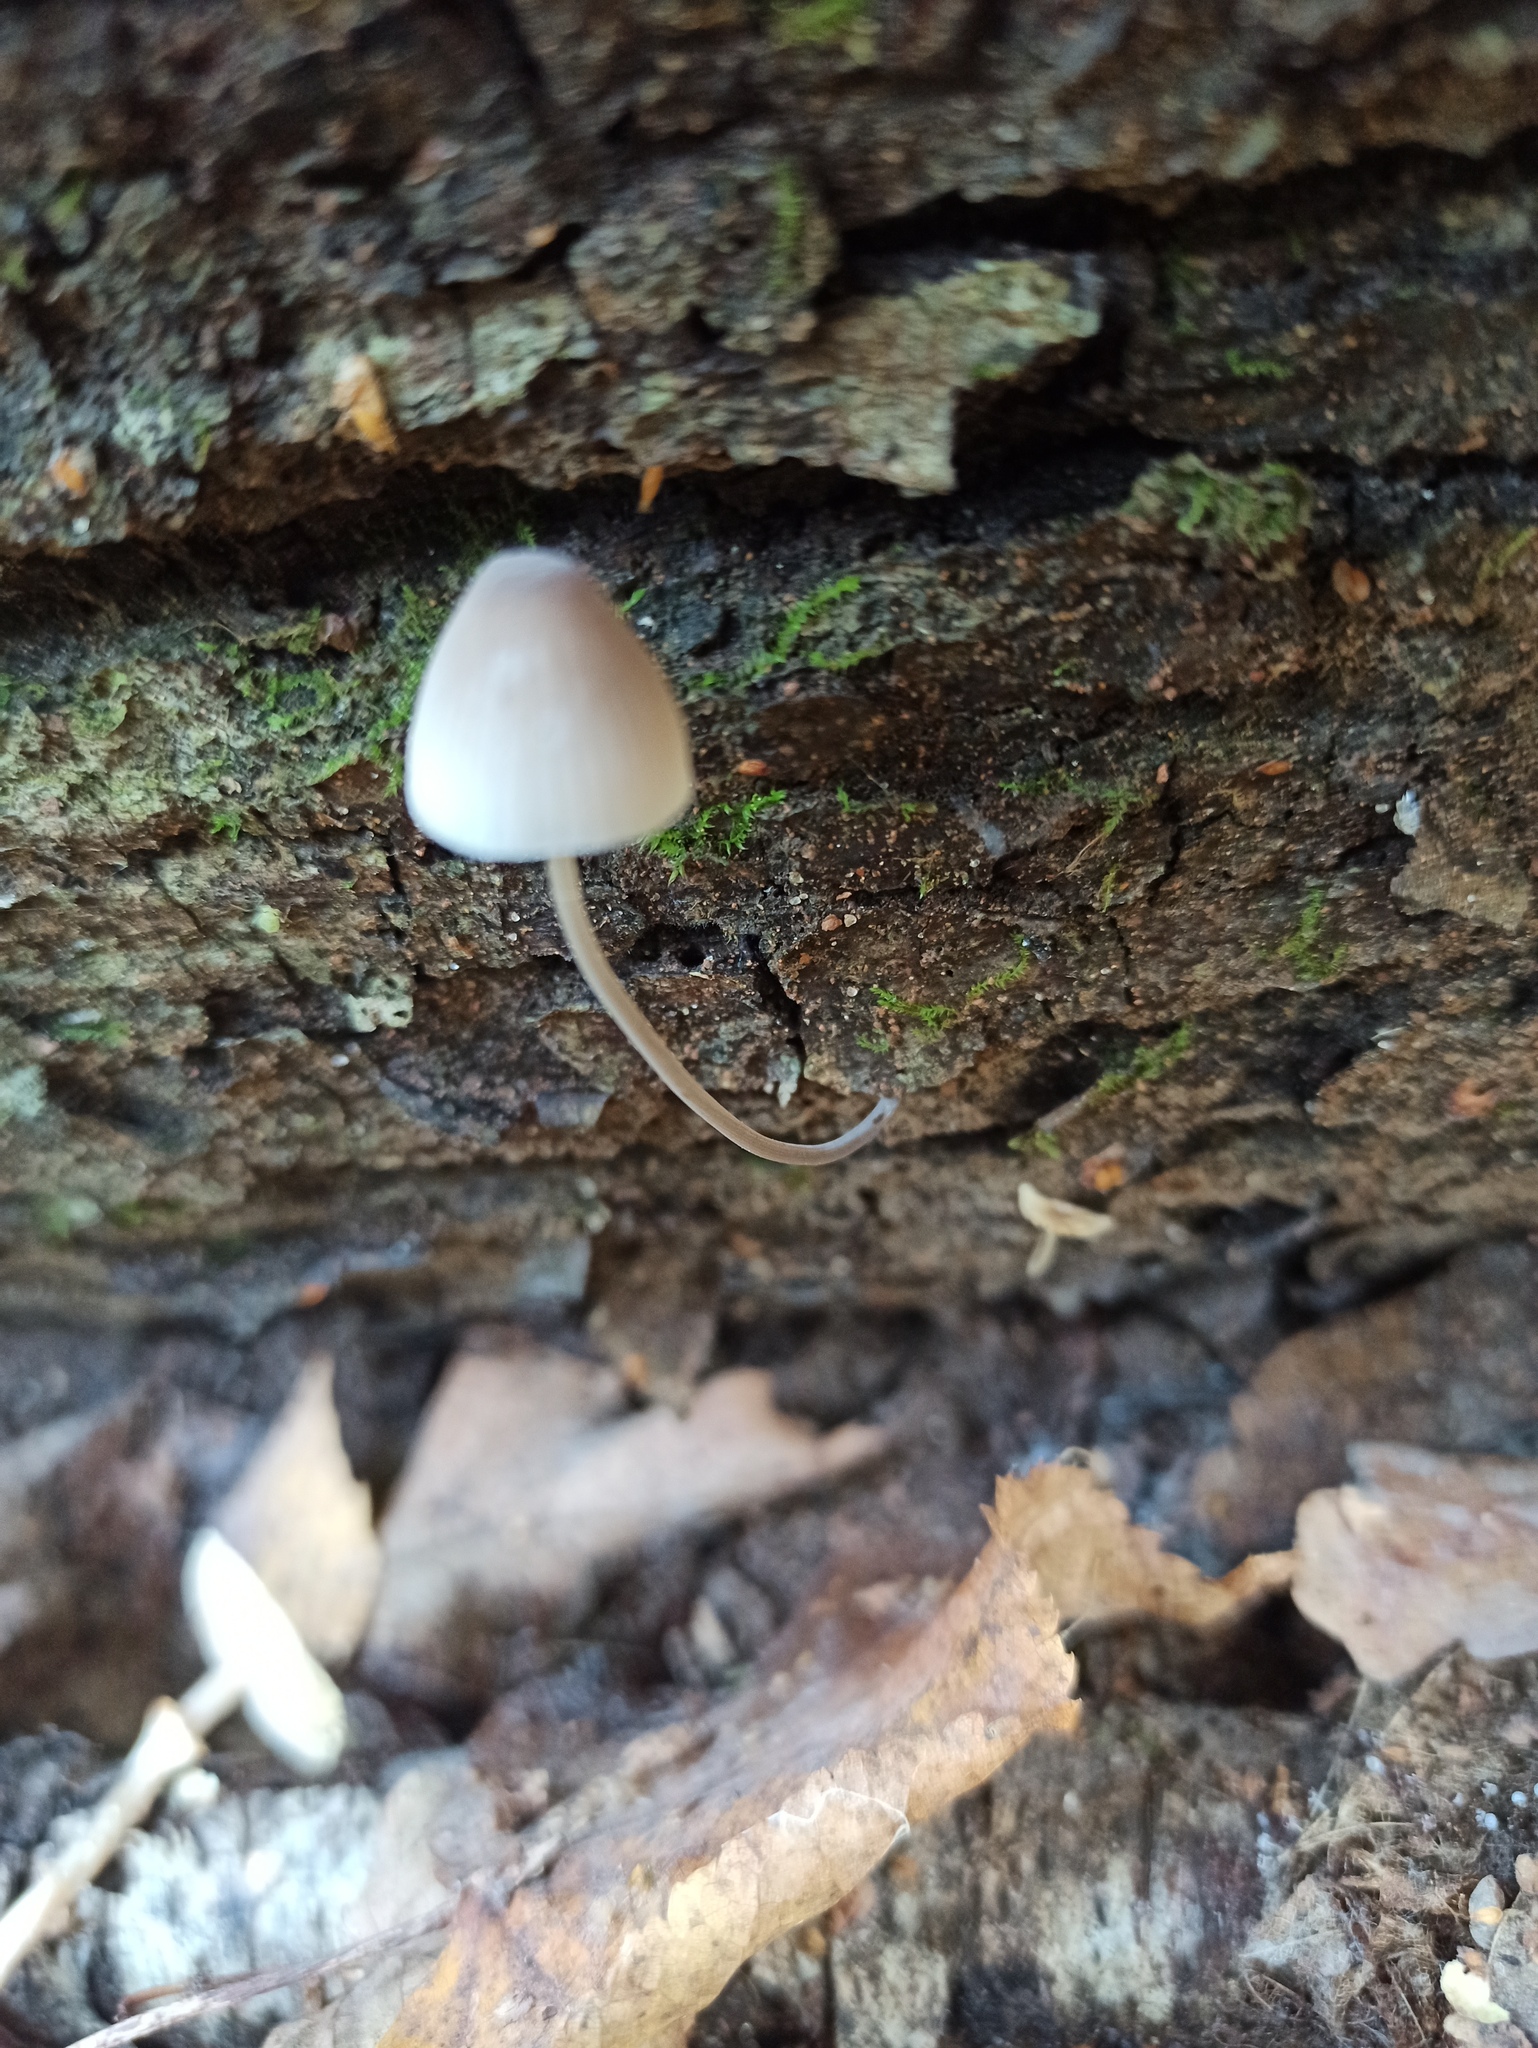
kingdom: Fungi
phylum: Basidiomycota
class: Agaricomycetes
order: Agaricales
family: Mycenaceae
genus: Mycena
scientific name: Mycena
